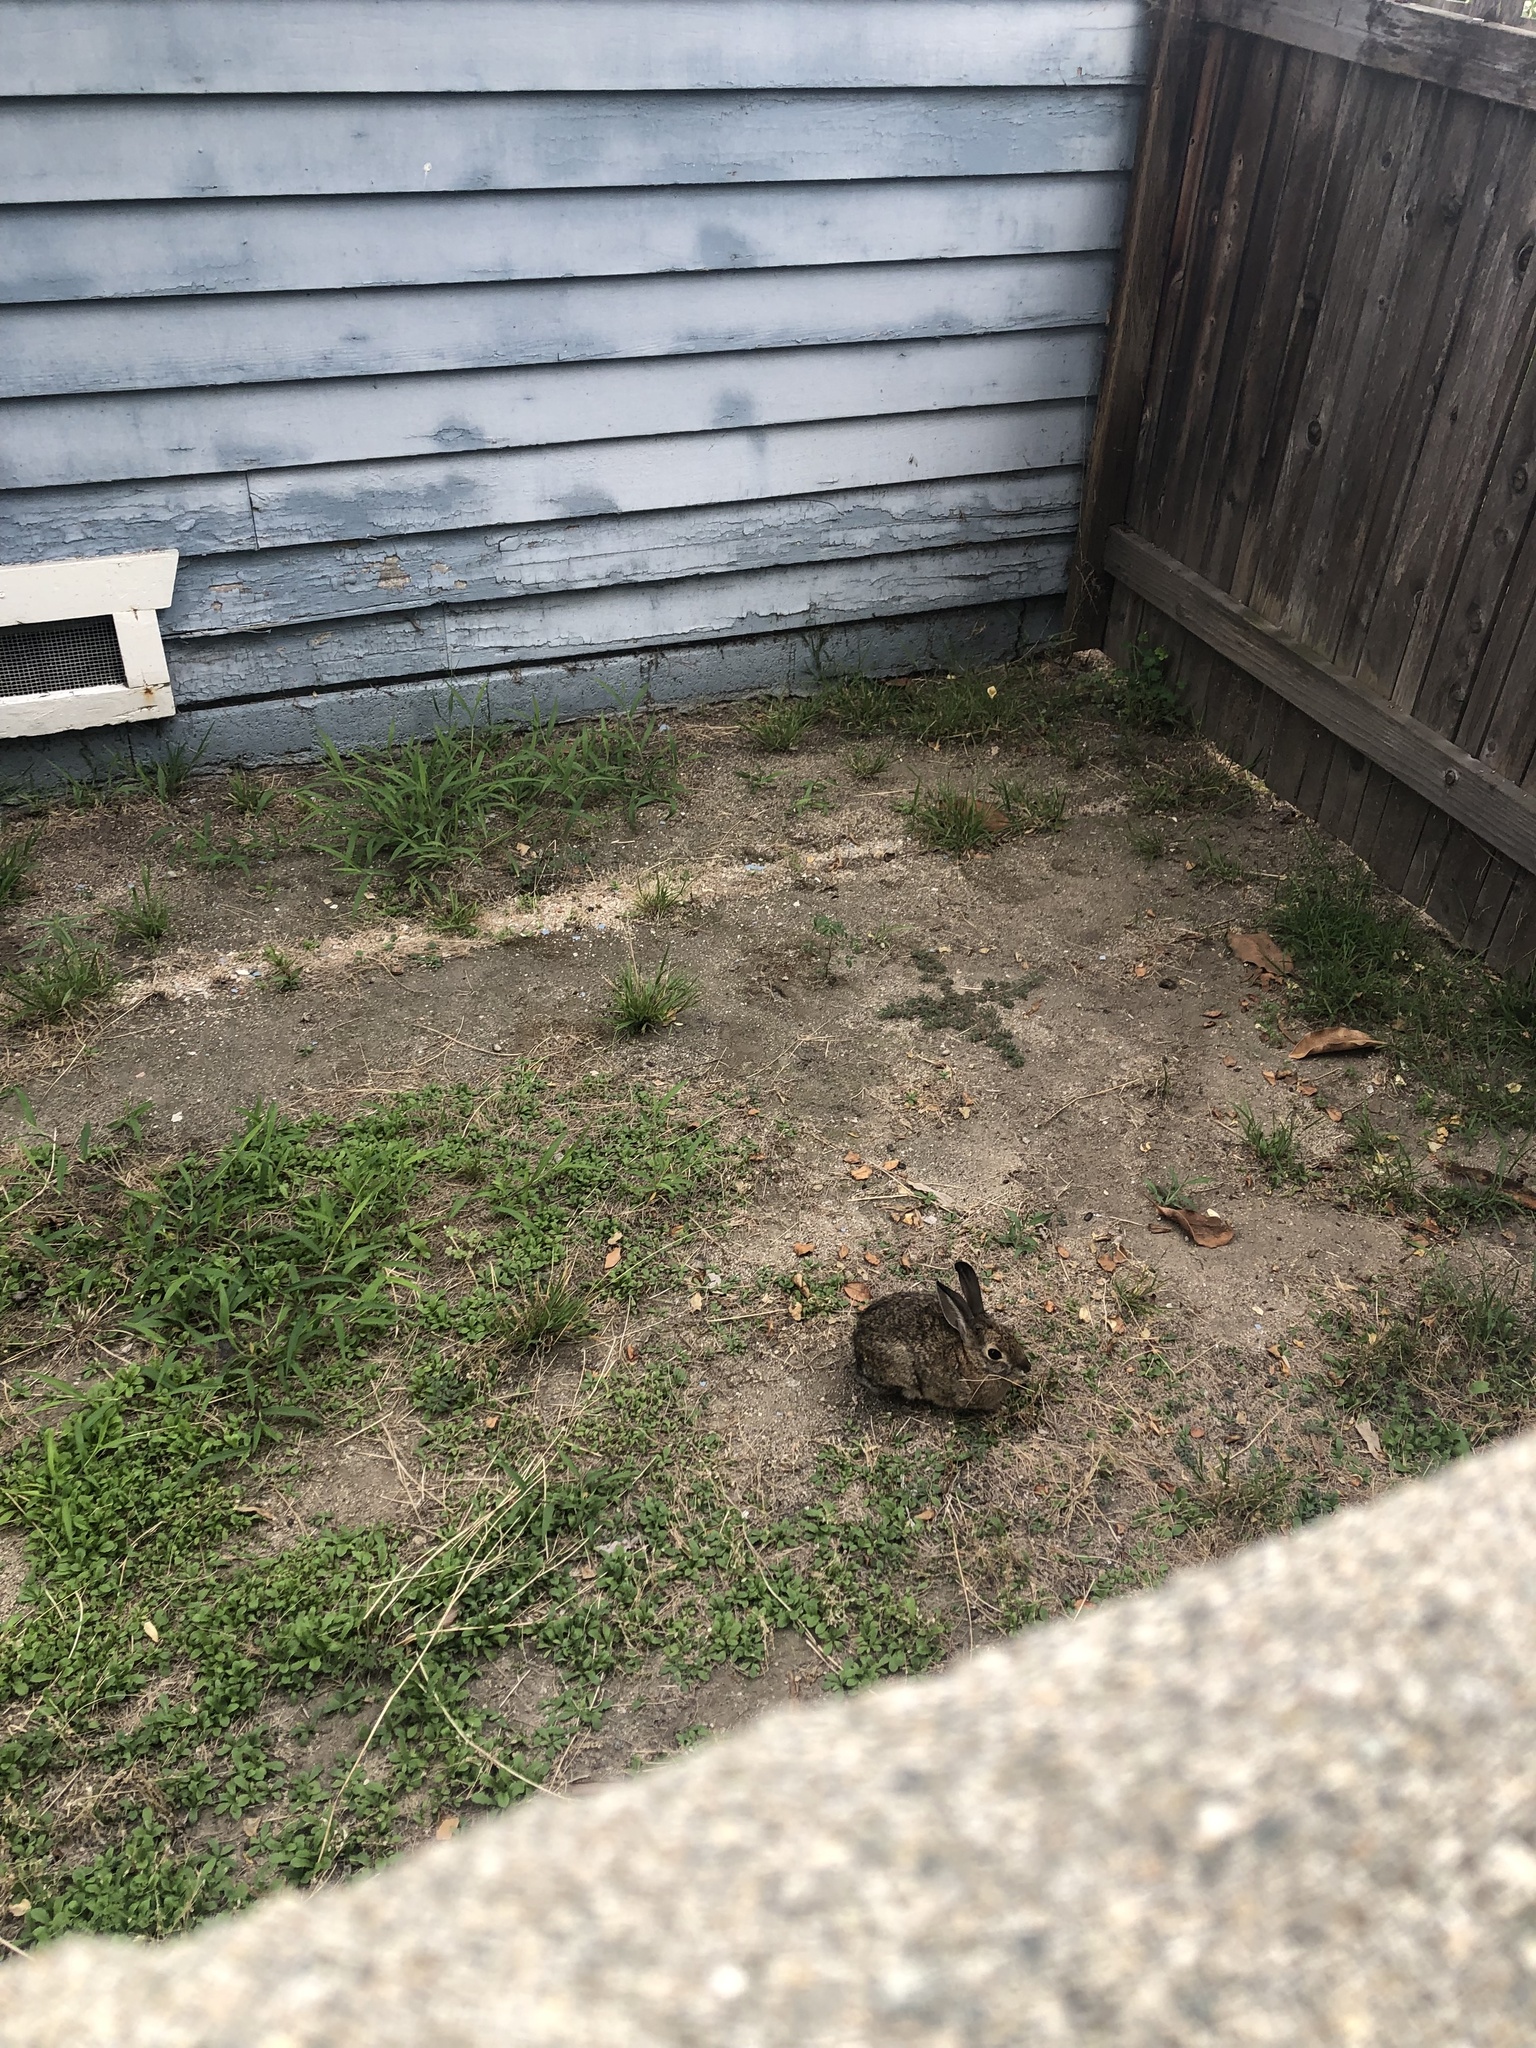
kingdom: Animalia
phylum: Chordata
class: Mammalia
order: Lagomorpha
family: Leporidae
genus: Sylvilagus
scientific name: Sylvilagus audubonii
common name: Desert cottontail
